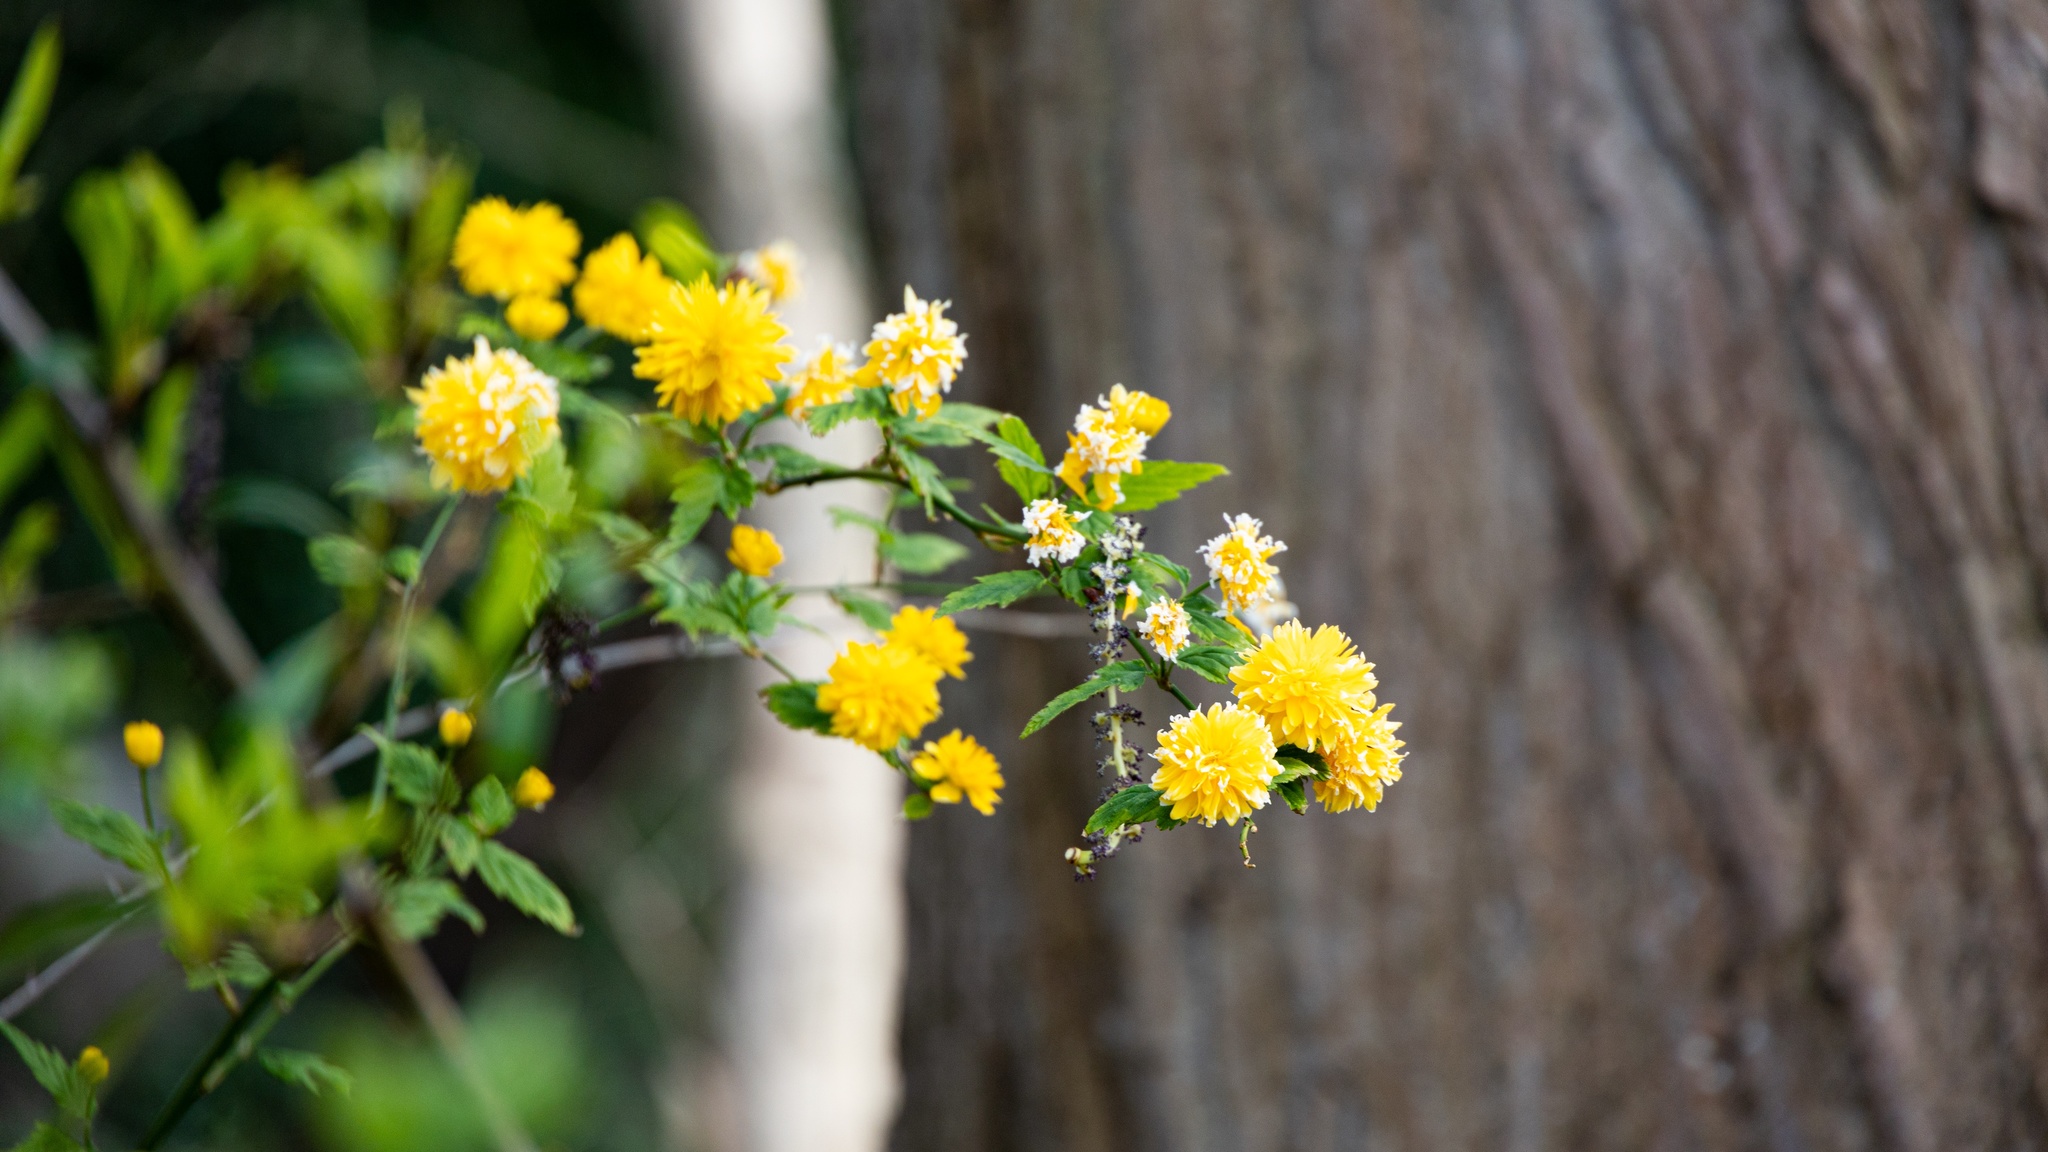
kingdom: Plantae
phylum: Tracheophyta
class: Magnoliopsida
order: Rosales
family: Rosaceae
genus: Kerria
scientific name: Kerria japonica
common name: Japanese kerria
